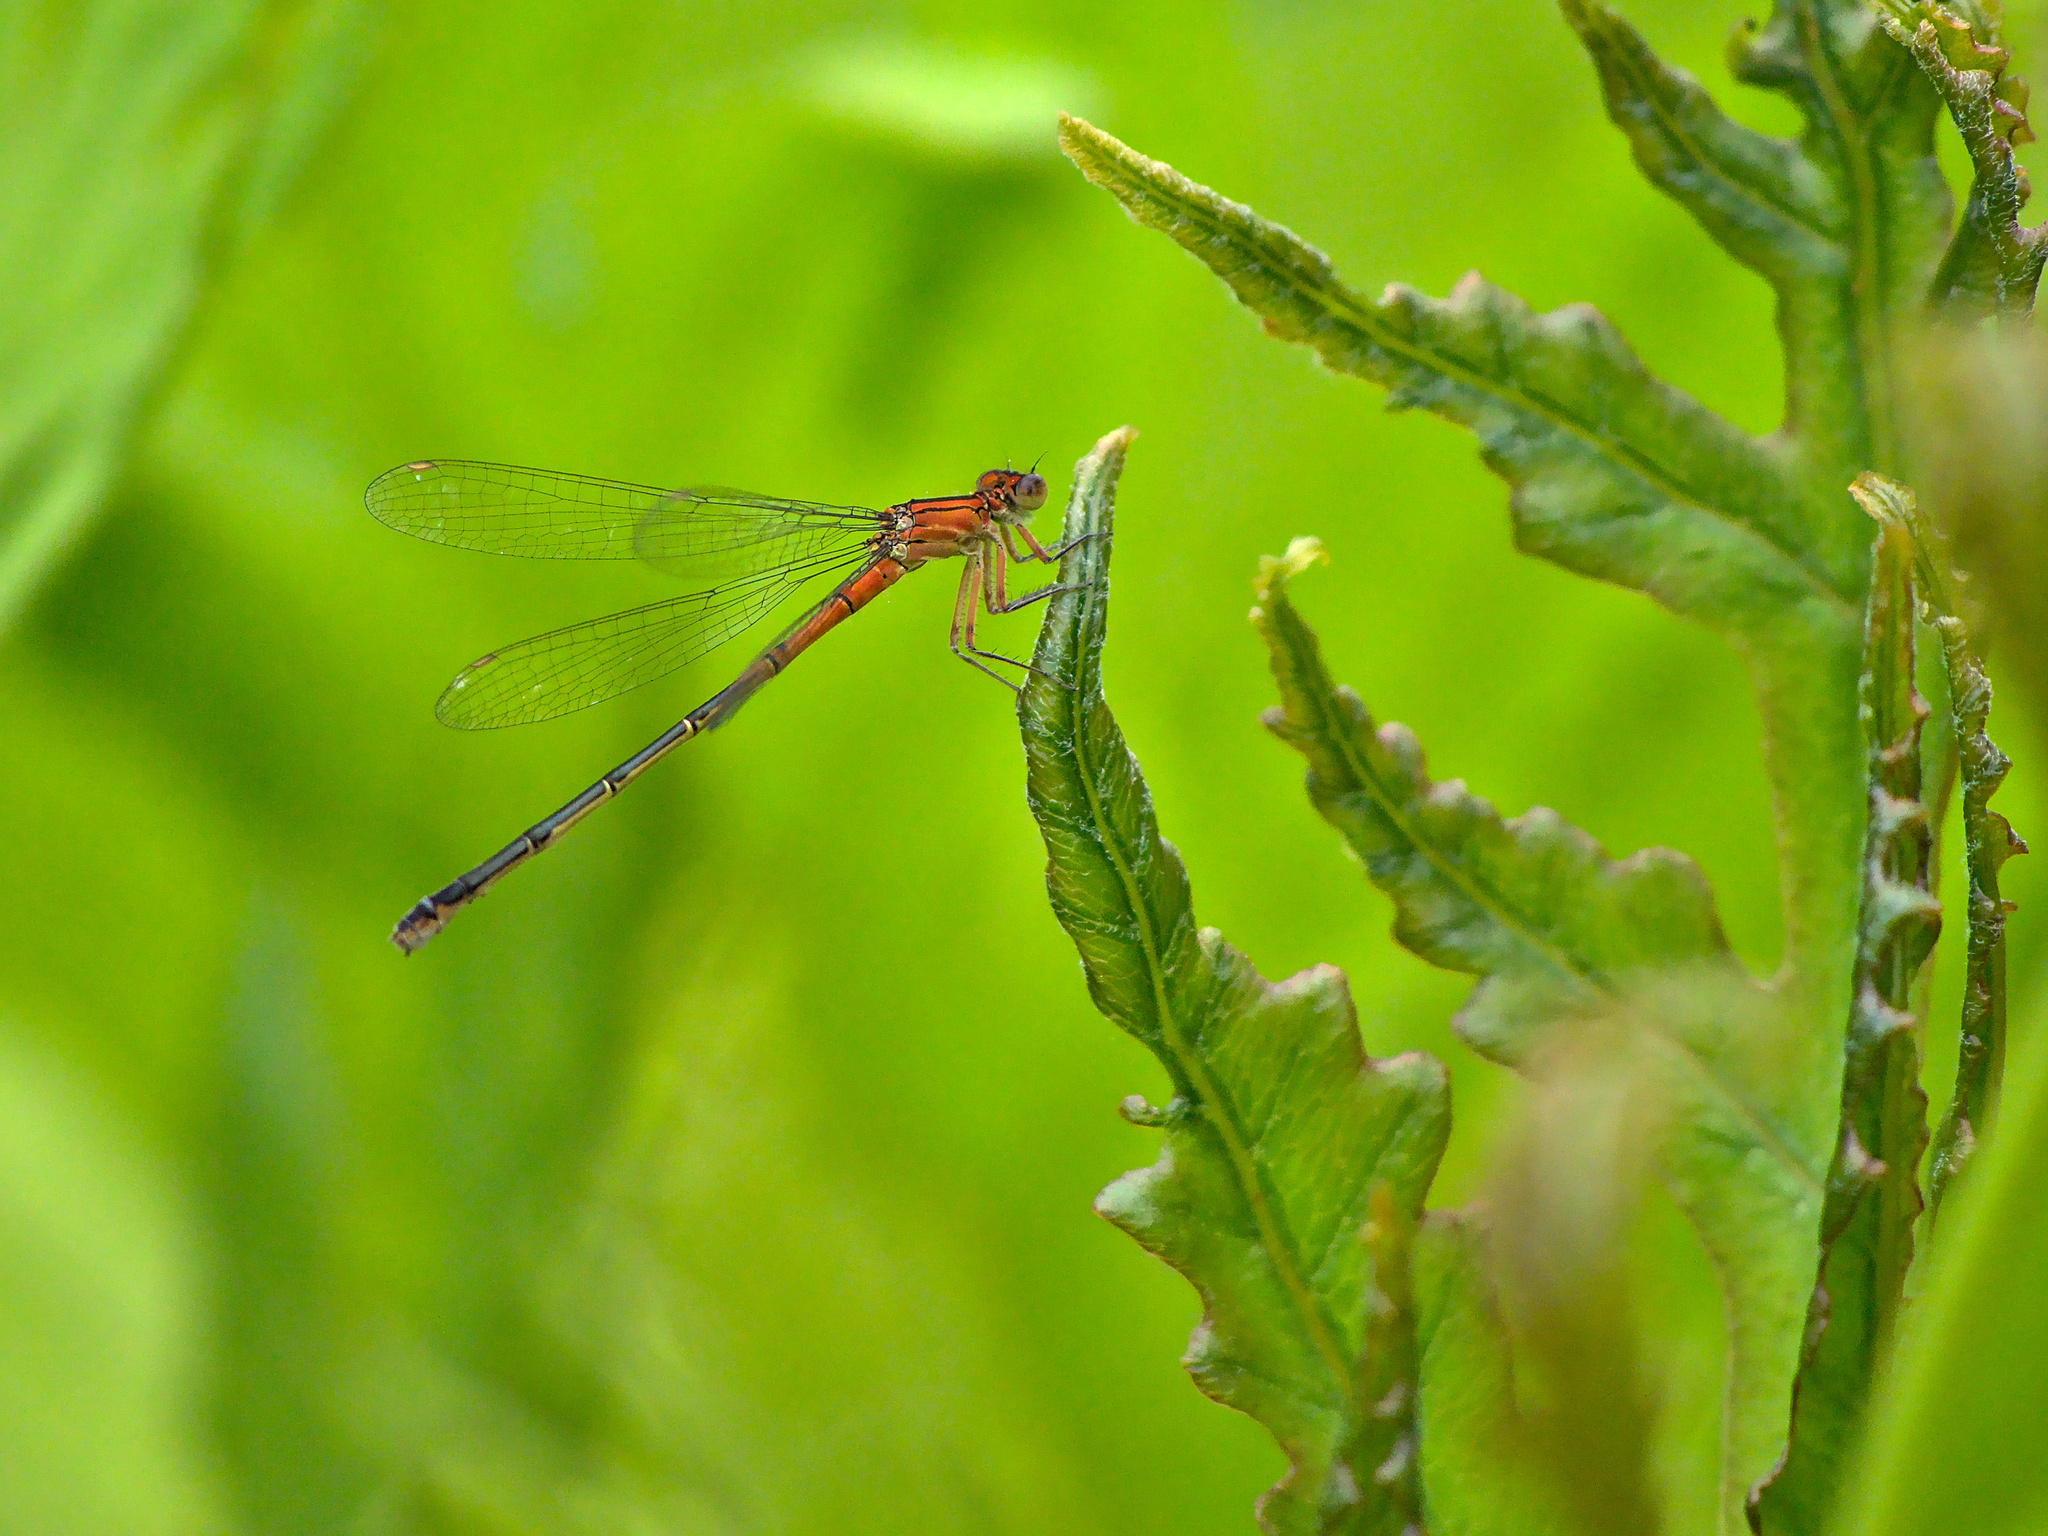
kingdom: Animalia
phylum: Arthropoda
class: Insecta
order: Odonata
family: Coenagrionidae
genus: Ischnura
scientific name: Ischnura verticalis
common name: Eastern forktail
